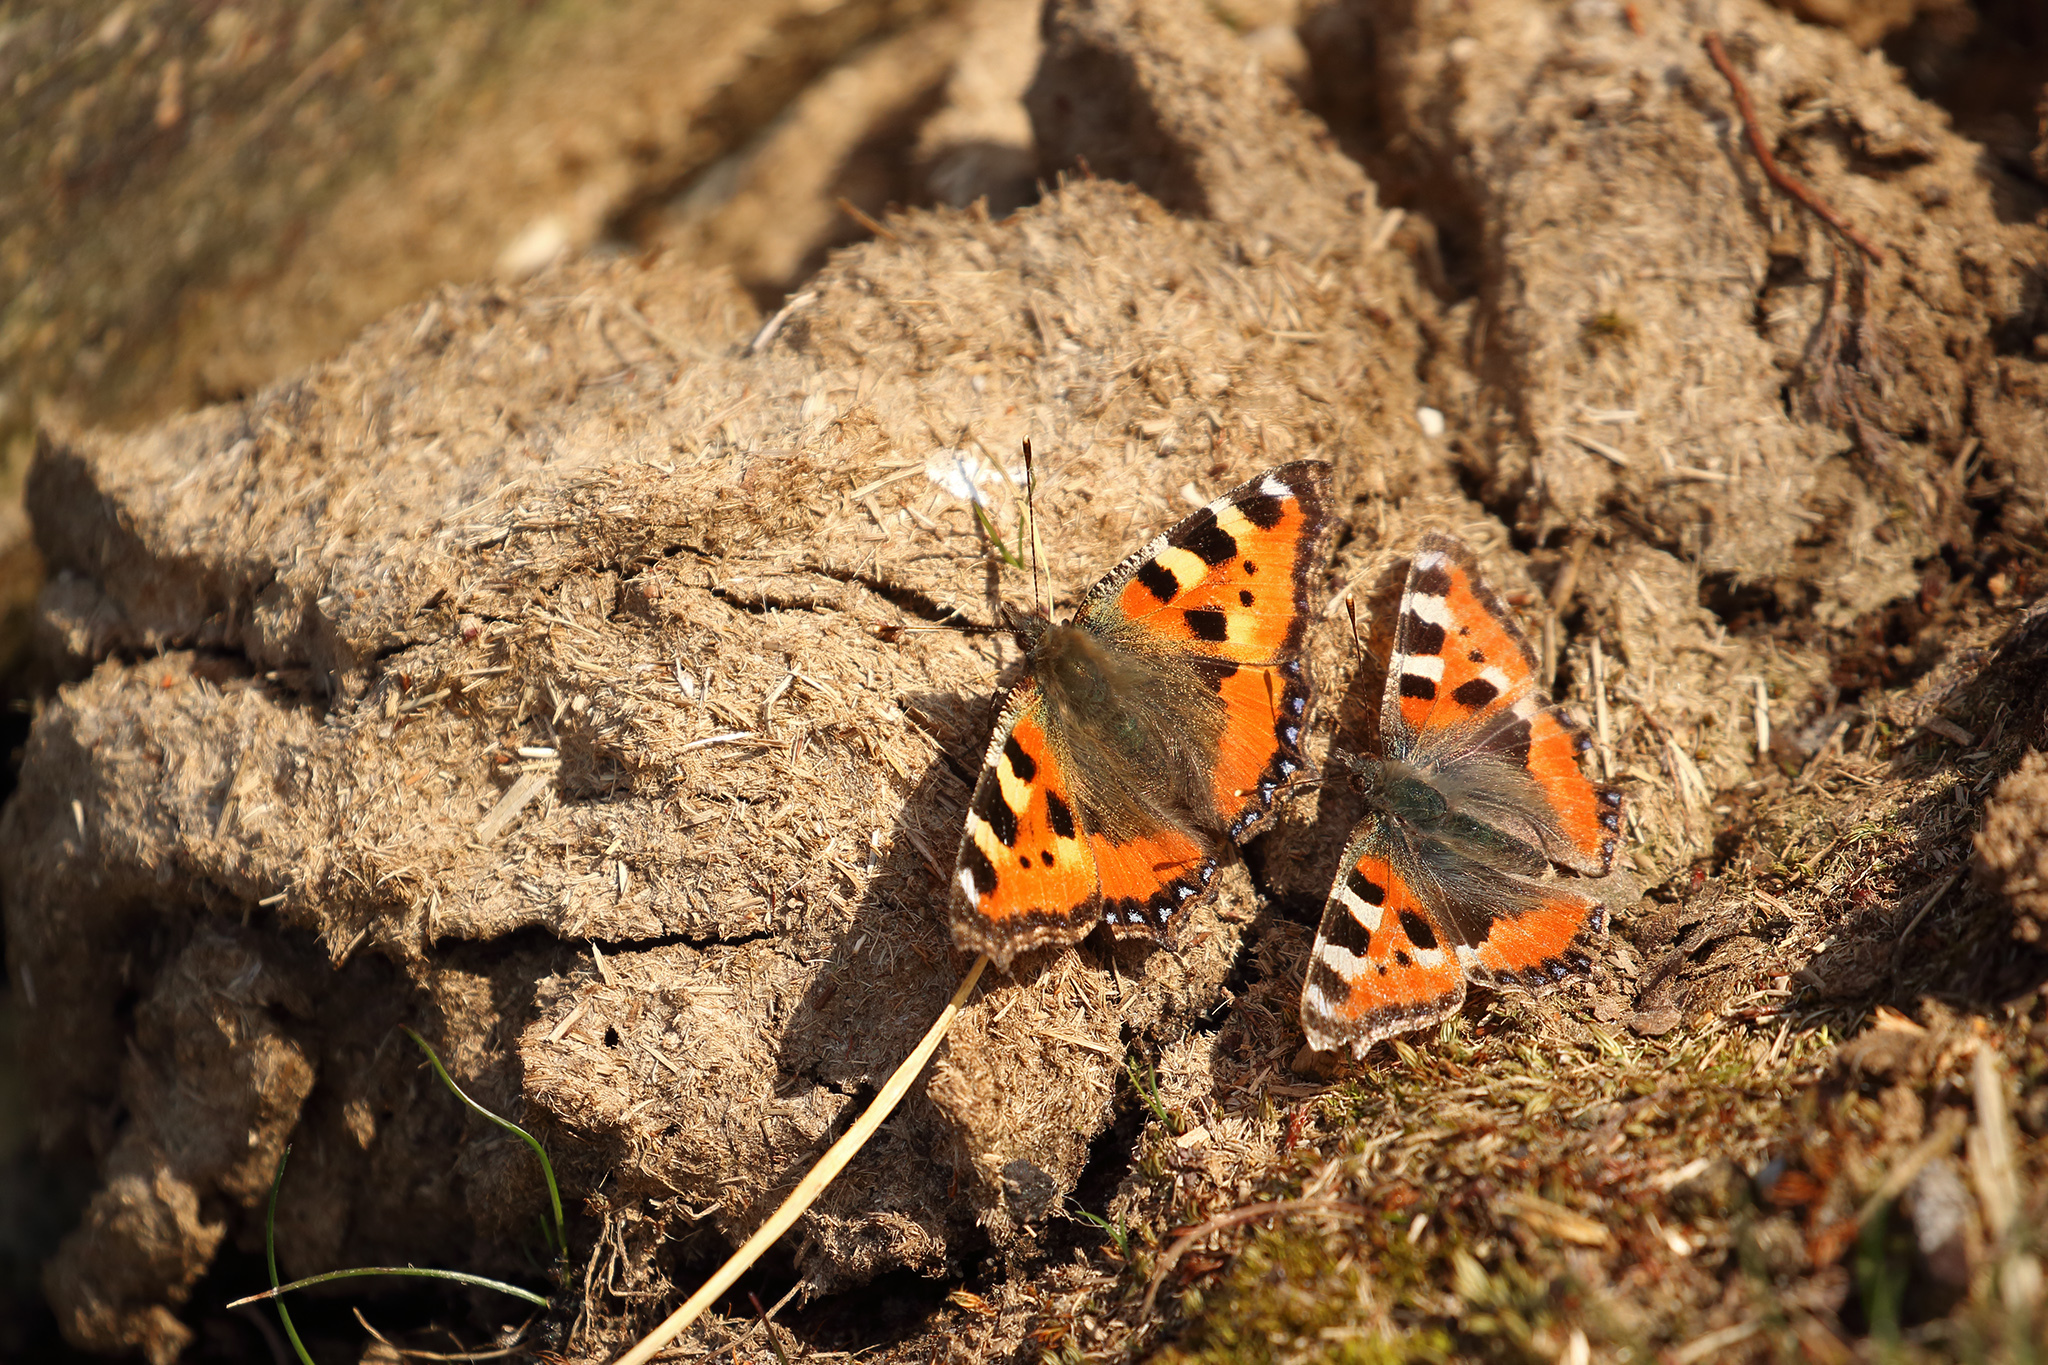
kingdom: Animalia
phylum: Arthropoda
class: Insecta
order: Lepidoptera
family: Nymphalidae
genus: Aglais
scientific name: Aglais urticae
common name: Small tortoiseshell
